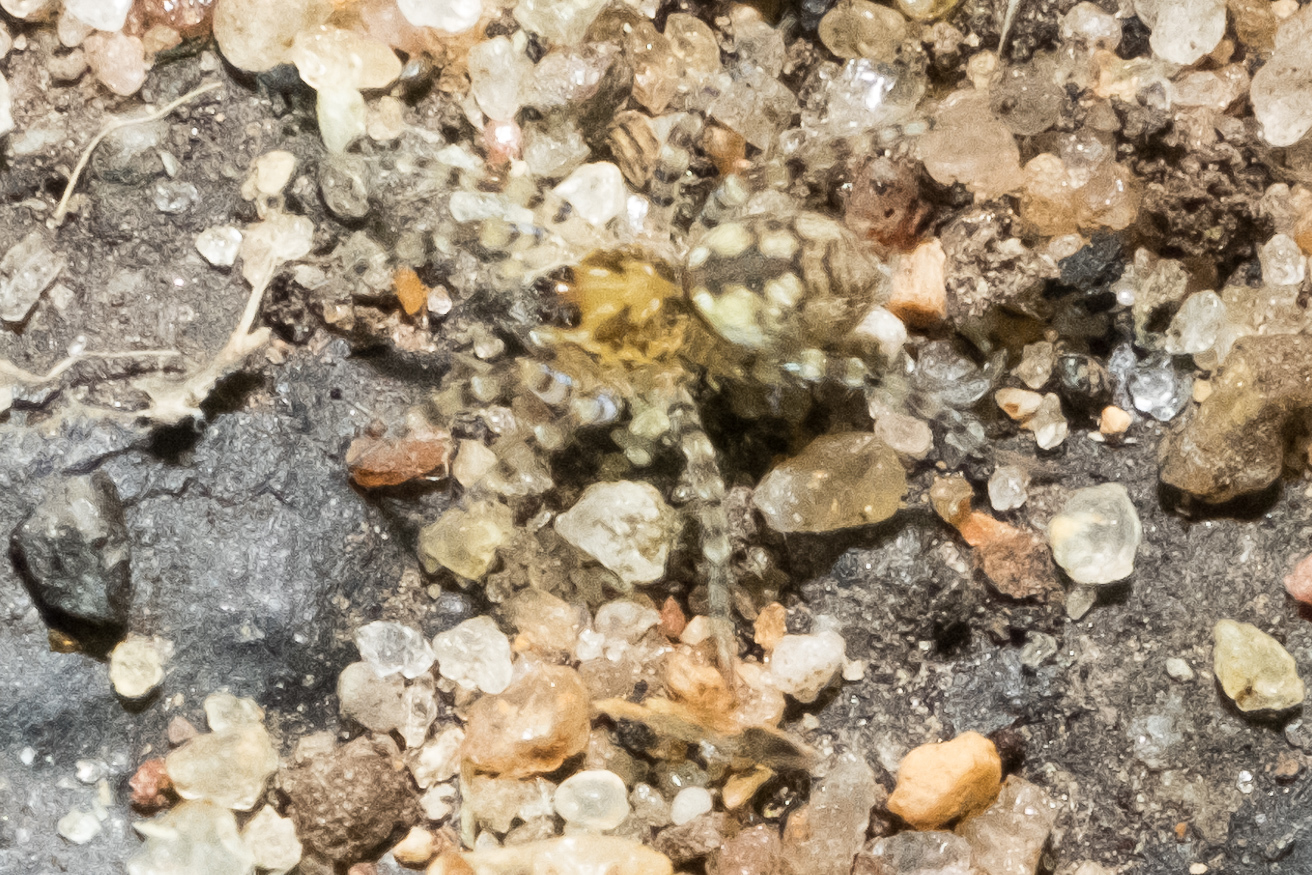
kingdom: Animalia
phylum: Arthropoda
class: Arachnida
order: Araneae
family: Lycosidae
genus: Arctosa
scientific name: Arctosa littoralis
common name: Wolf spiders
